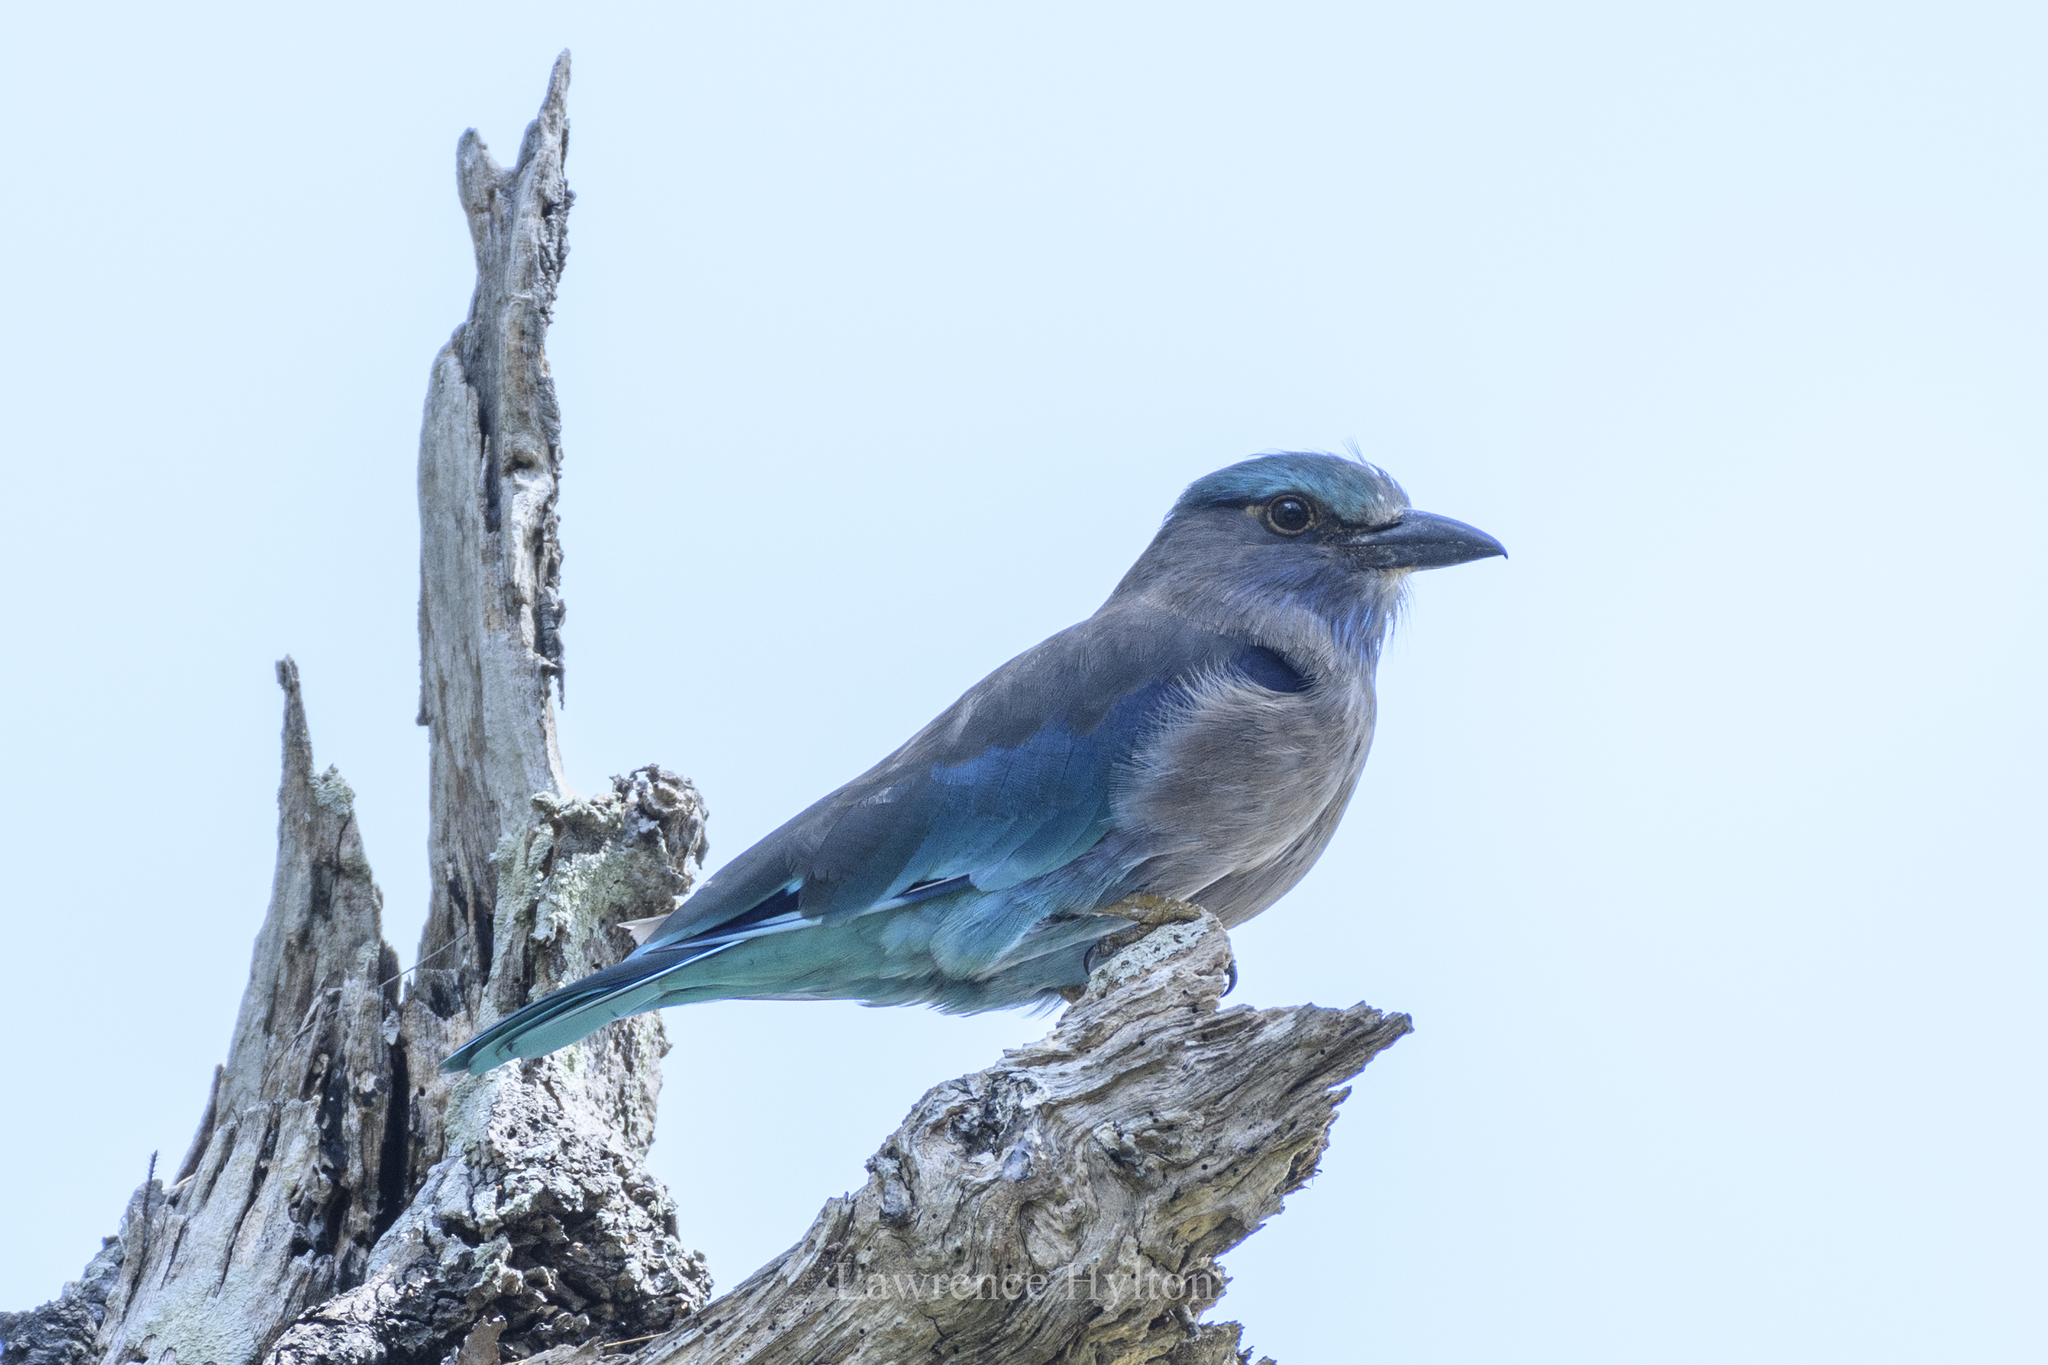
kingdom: Animalia
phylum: Chordata
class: Aves
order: Coraciiformes
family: Coraciidae
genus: Coracias
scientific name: Coracias affinis
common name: Indochinese roller
